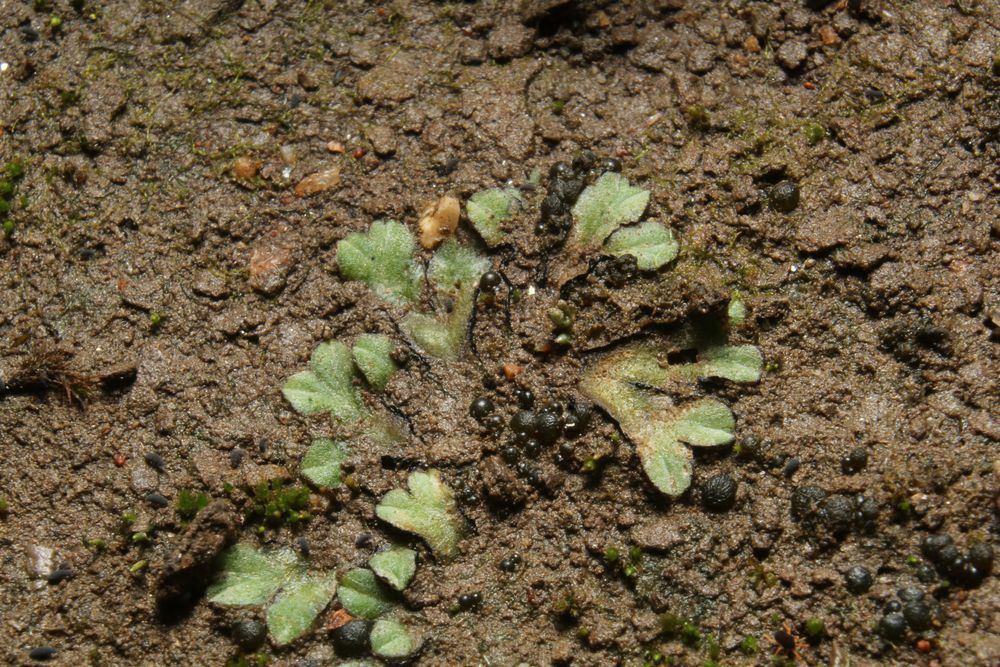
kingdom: Plantae
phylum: Marchantiophyta
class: Marchantiopsida
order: Marchantiales
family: Ricciaceae
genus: Riccia
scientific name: Riccia inflexa
